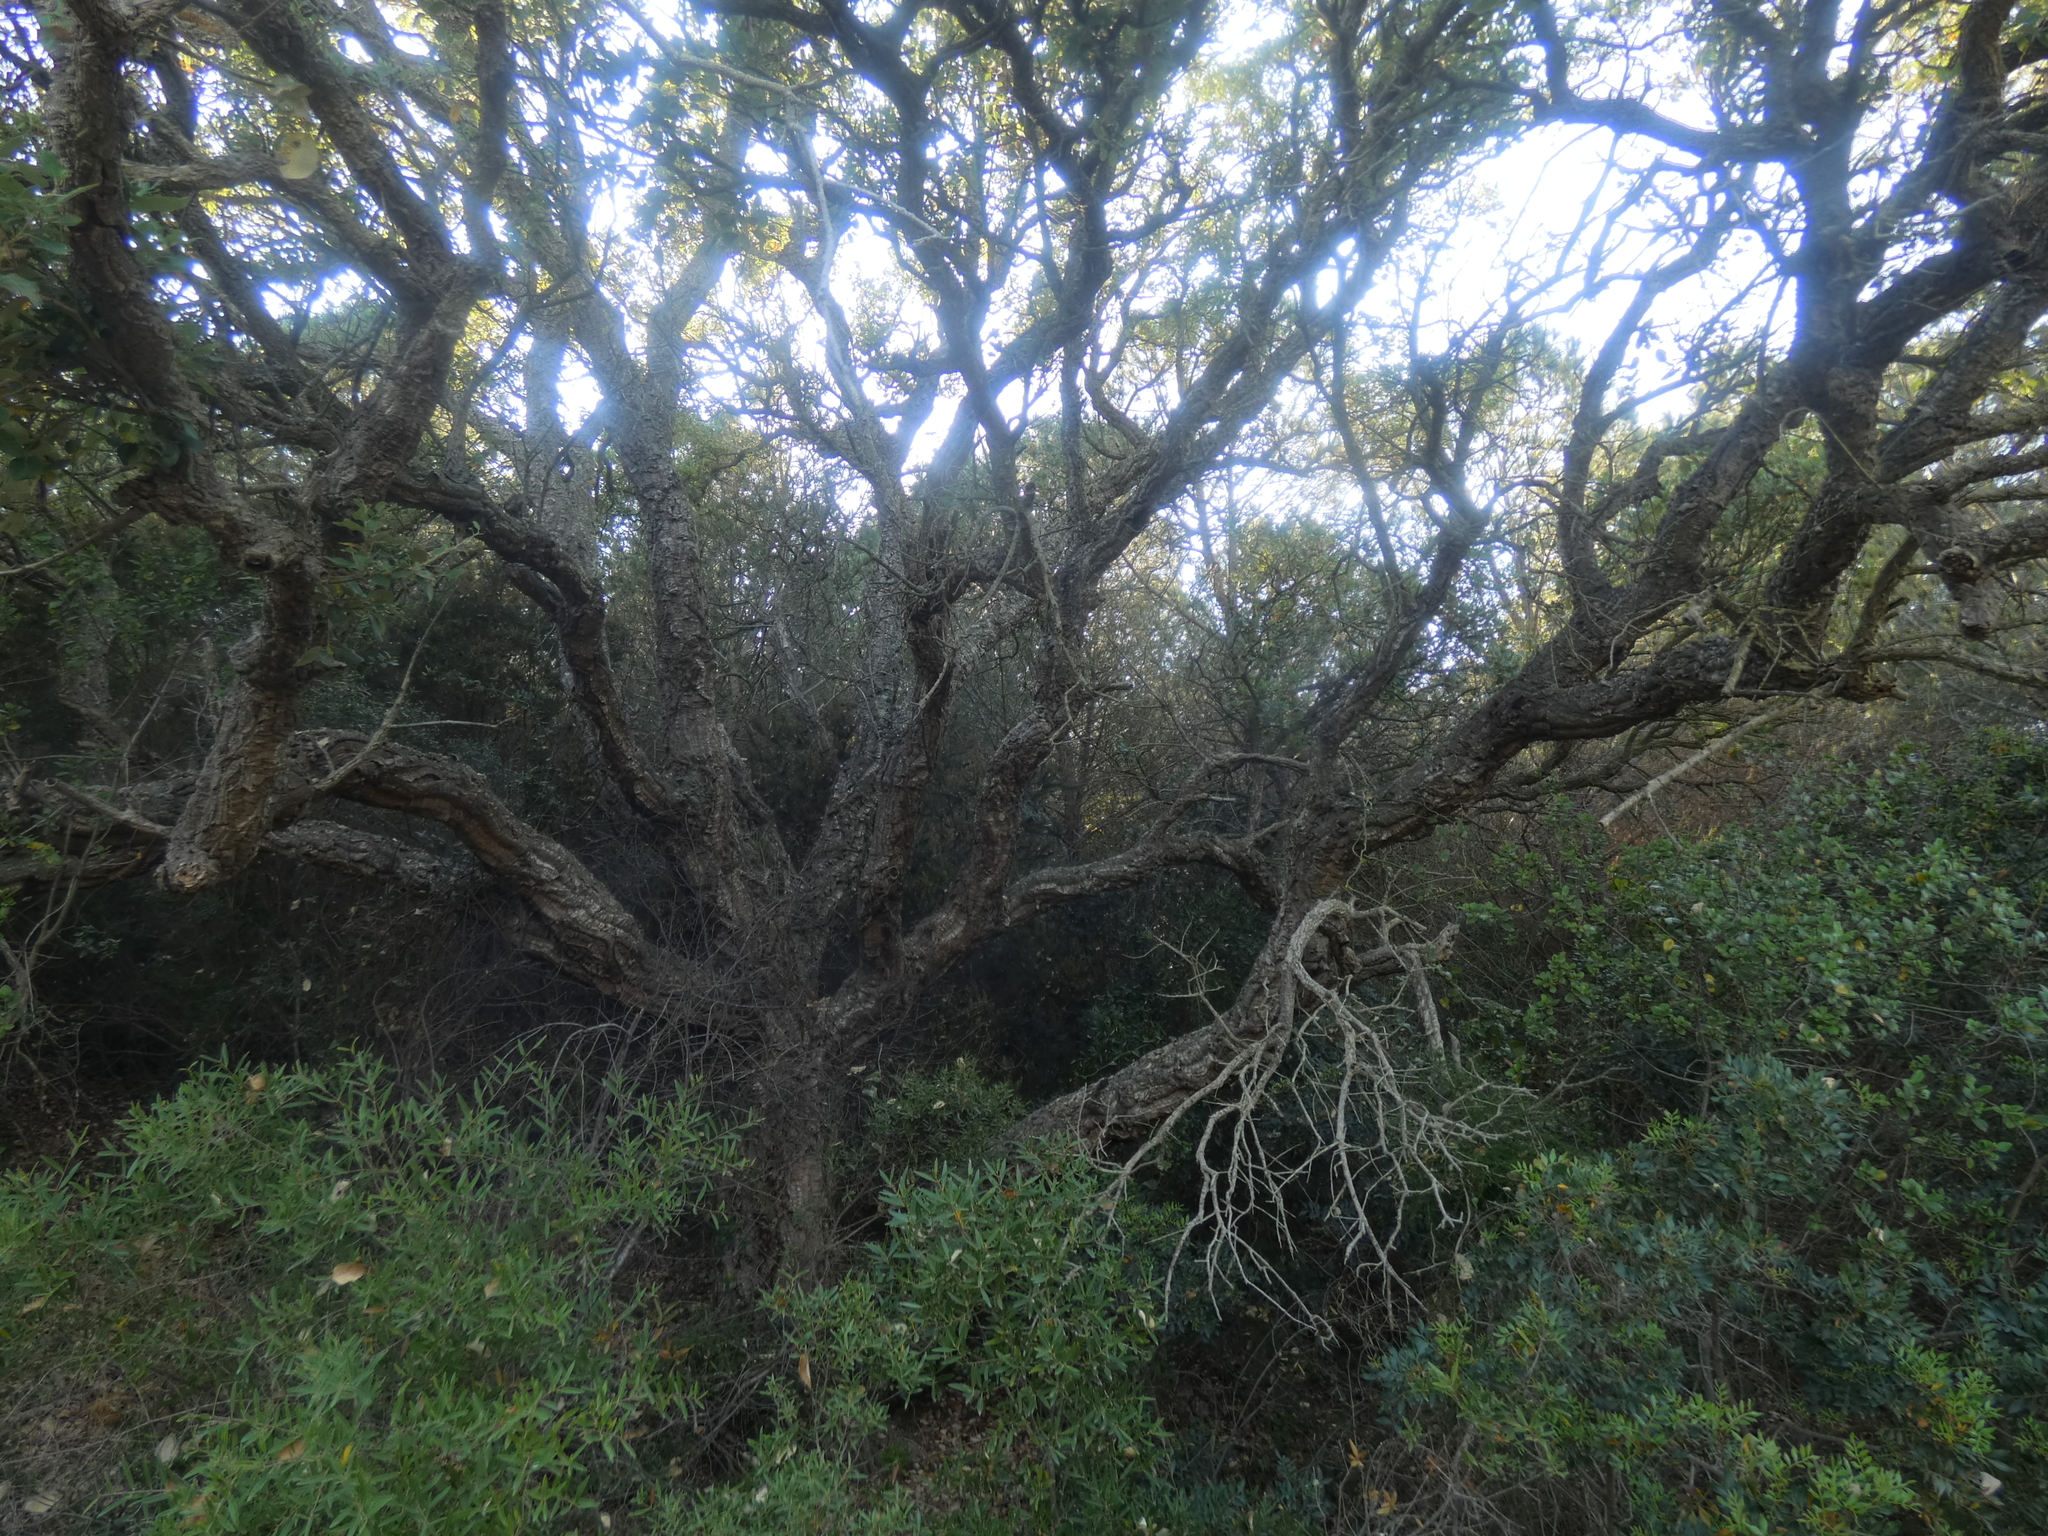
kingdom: Plantae
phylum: Tracheophyta
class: Magnoliopsida
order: Fagales
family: Fagaceae
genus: Quercus
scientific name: Quercus suber
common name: Cork oak
